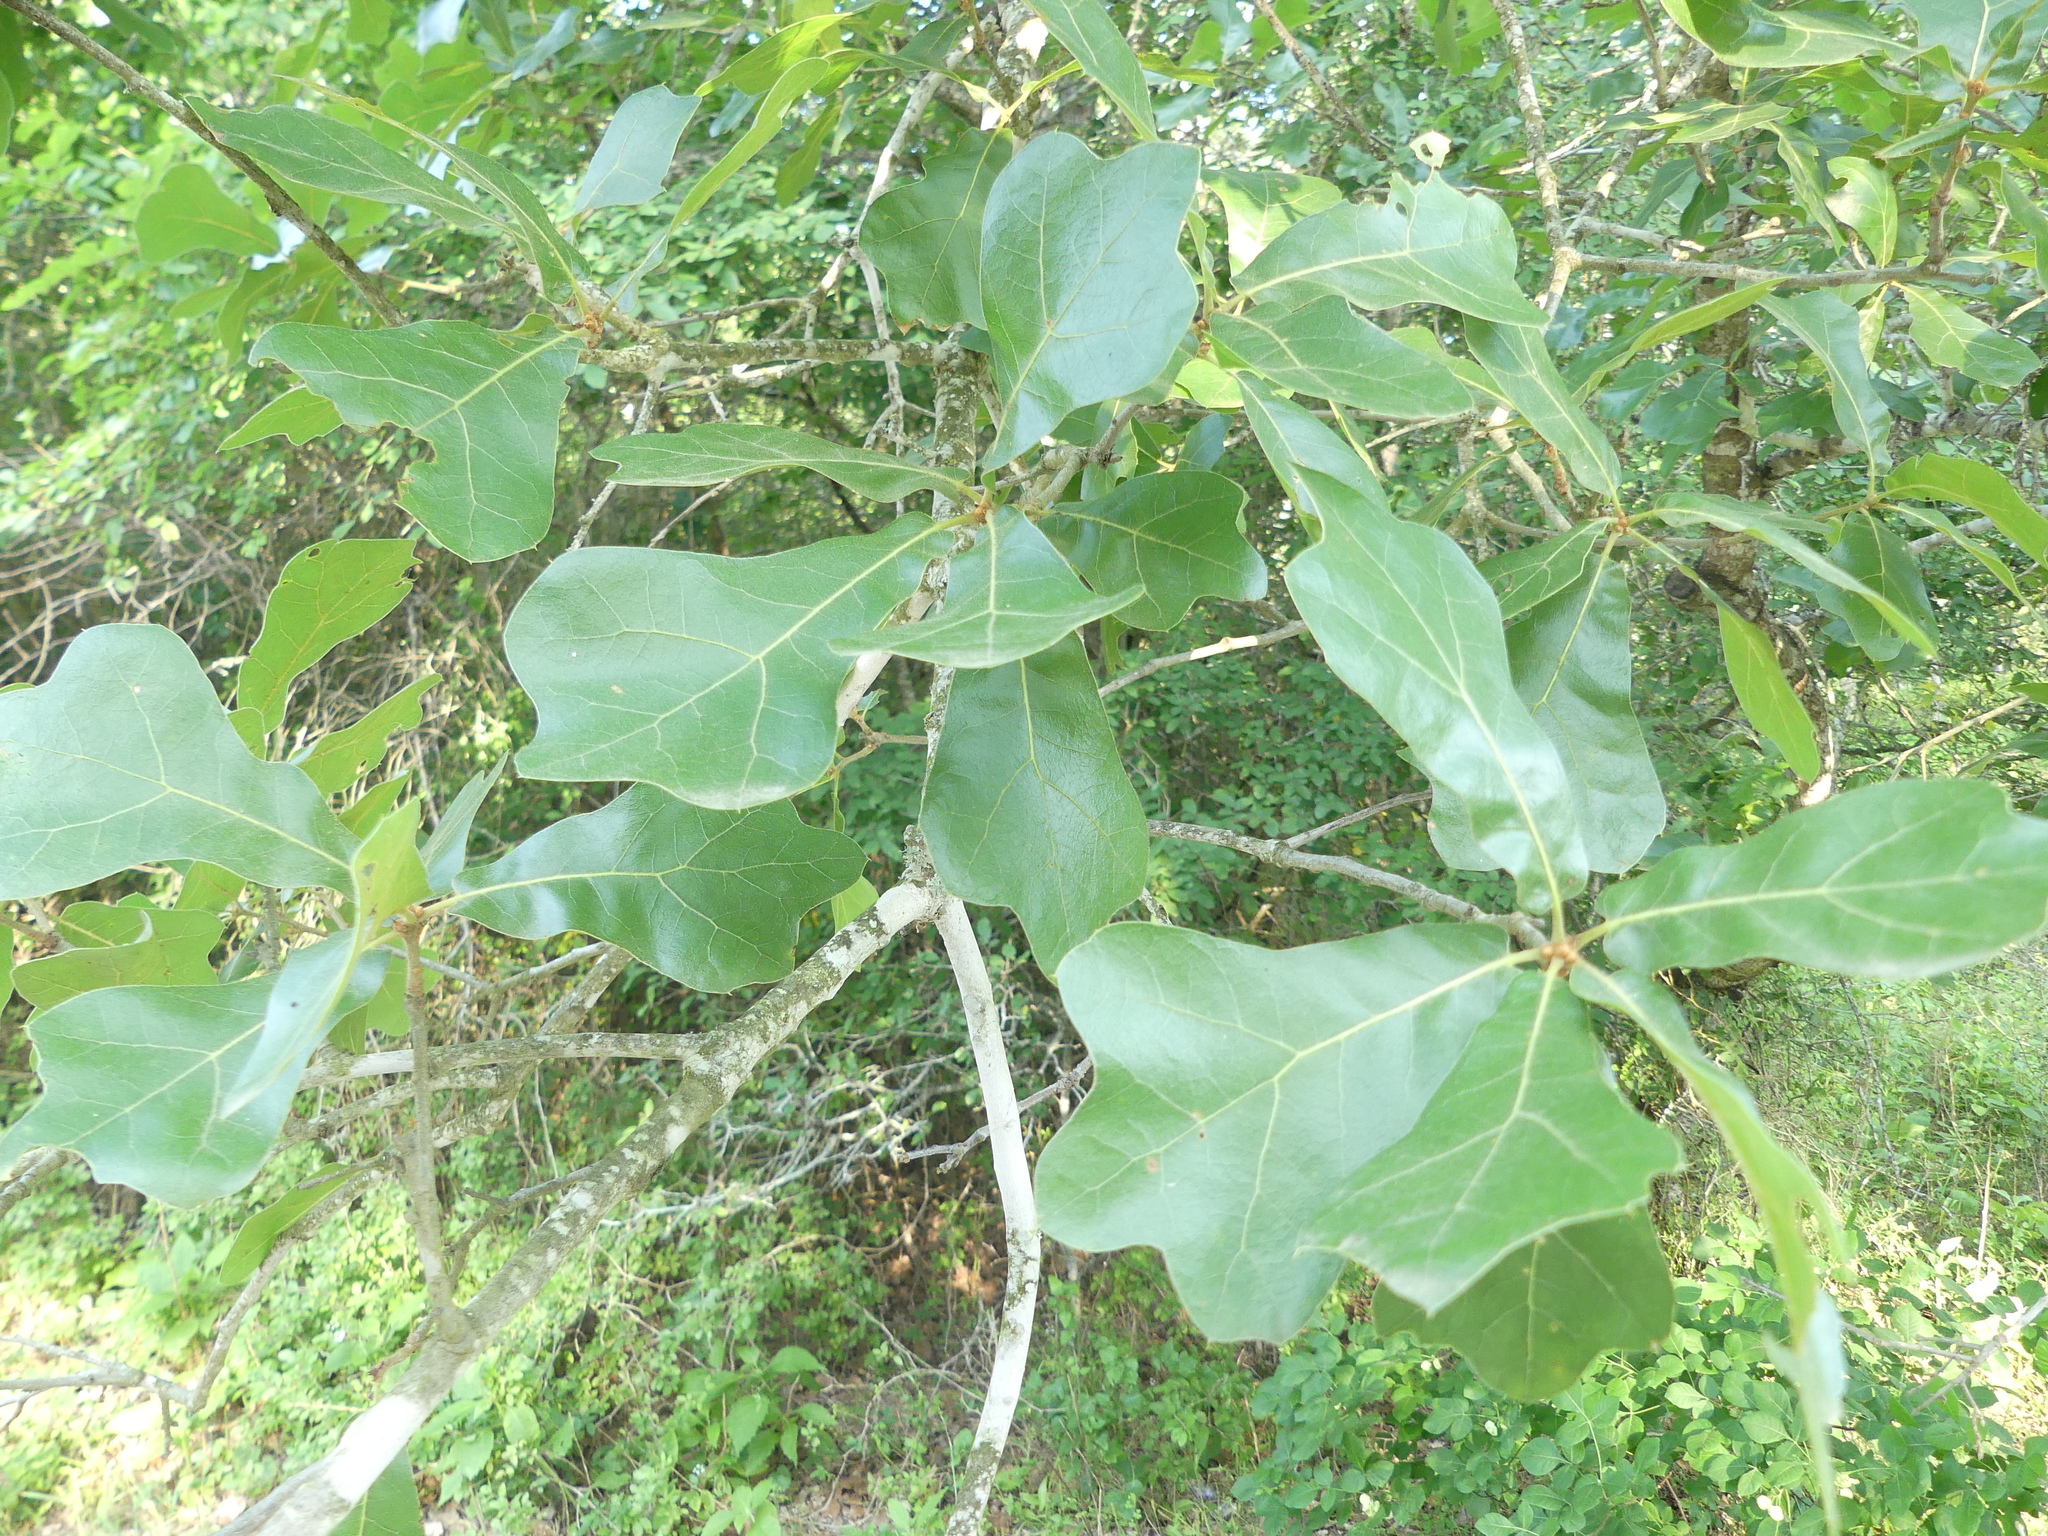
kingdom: Plantae
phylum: Tracheophyta
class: Magnoliopsida
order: Fagales
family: Fagaceae
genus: Quercus
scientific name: Quercus marilandica
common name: Blackjack oak
